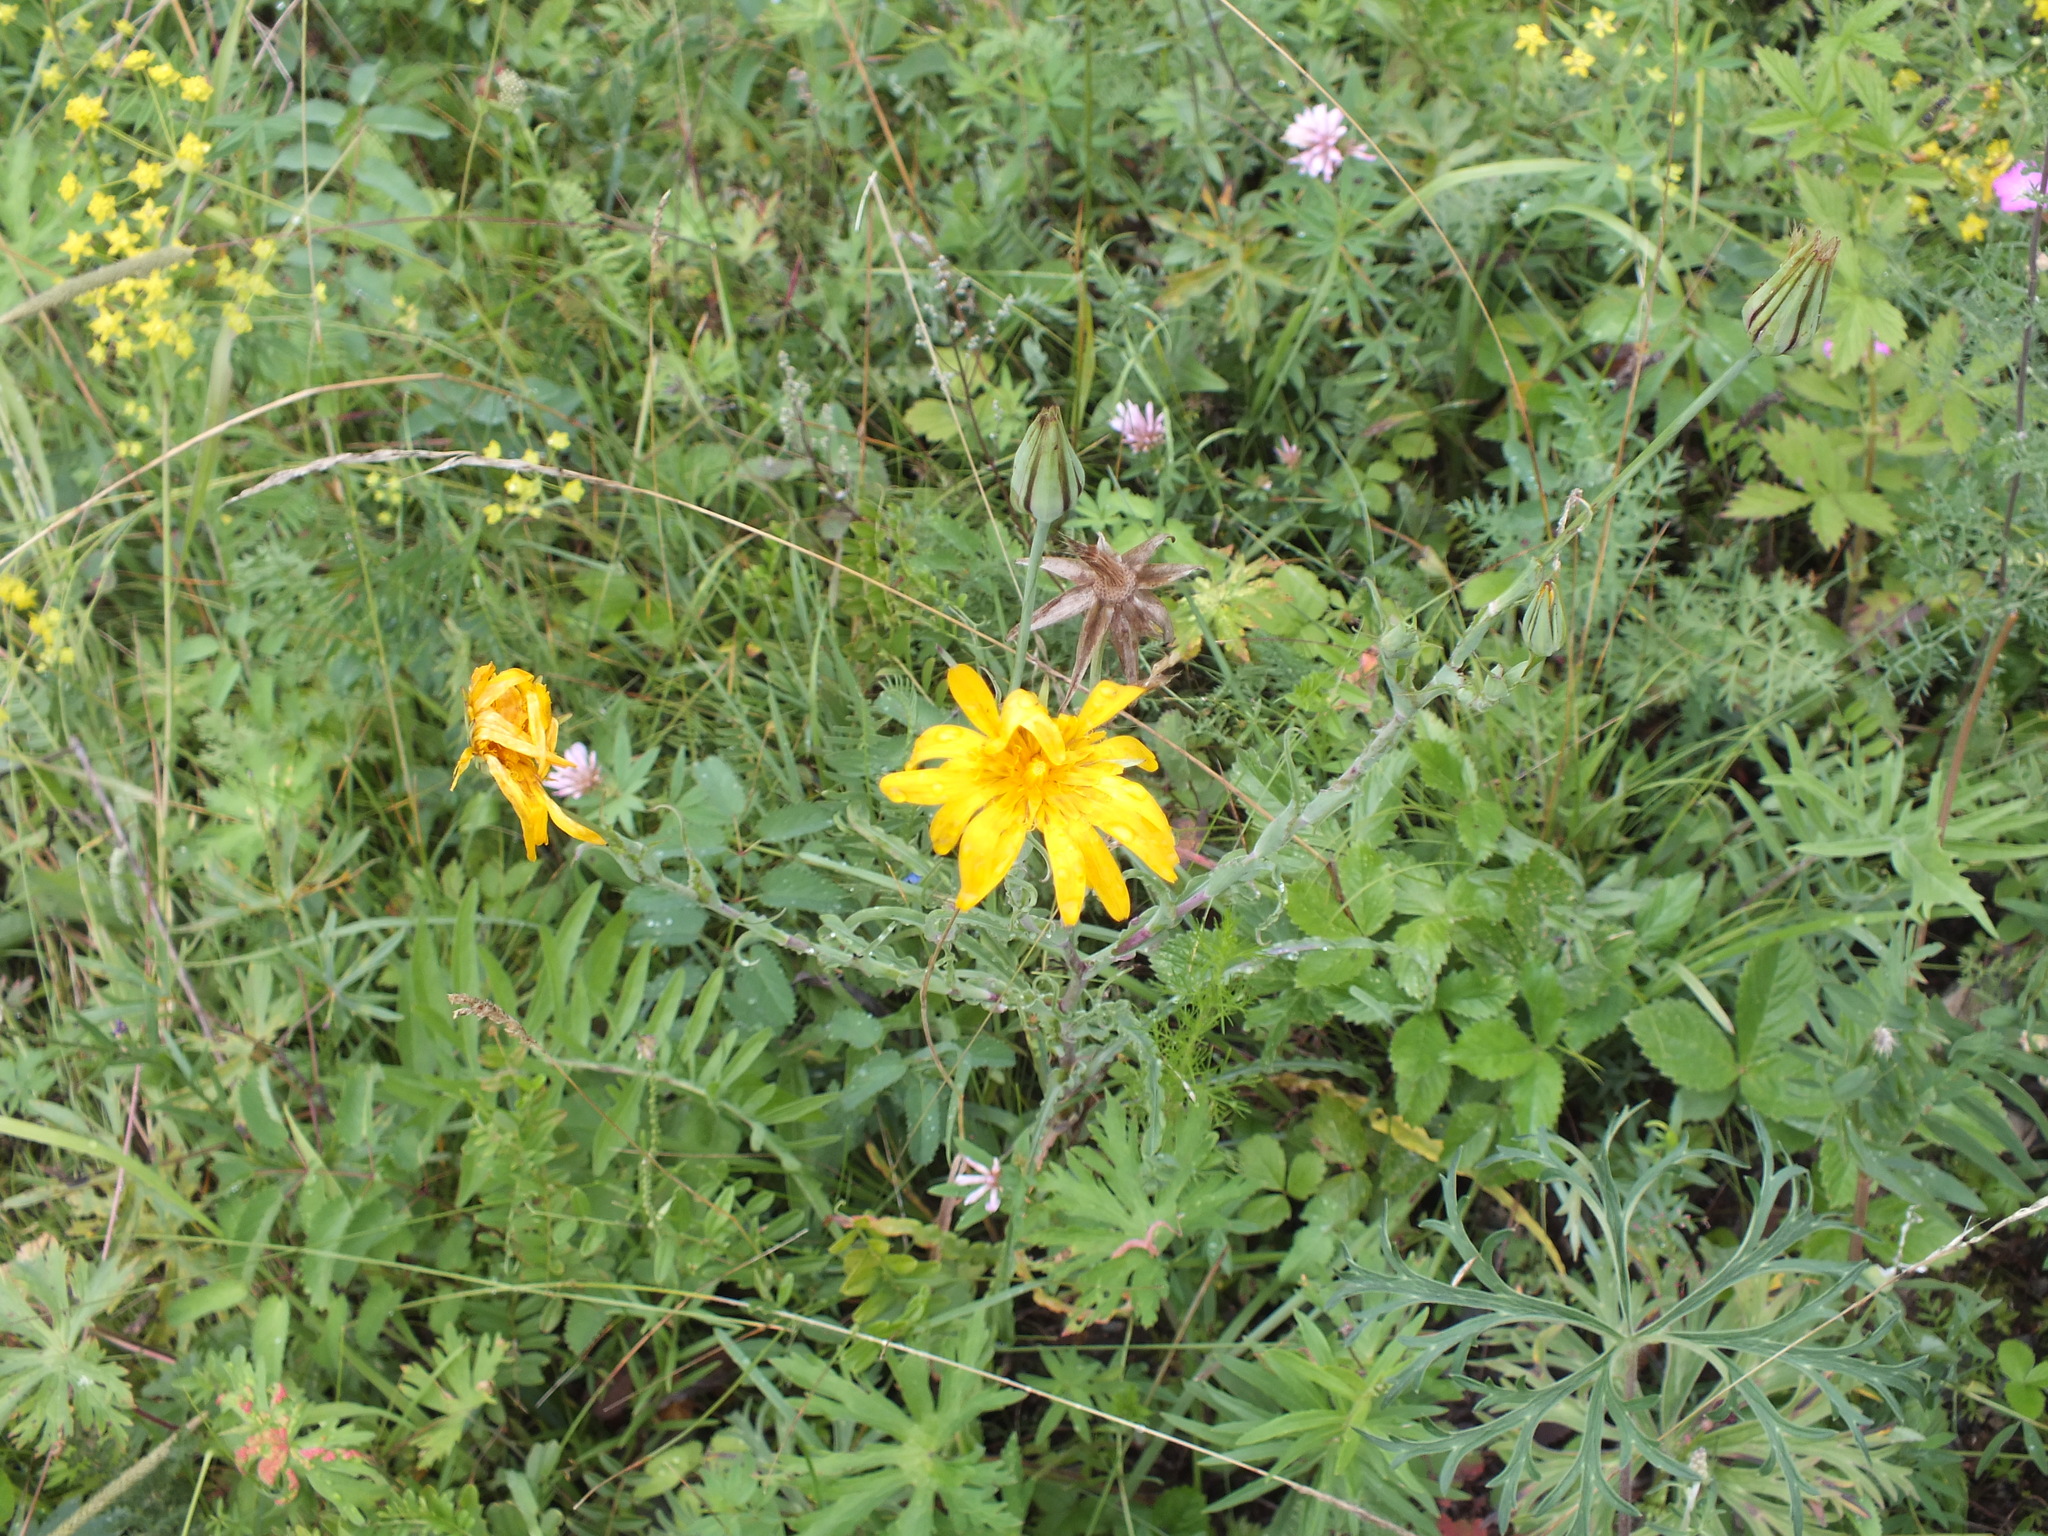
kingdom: Plantae
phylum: Tracheophyta
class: Magnoliopsida
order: Asterales
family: Asteraceae
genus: Tragopogon
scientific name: Tragopogon orientalis
